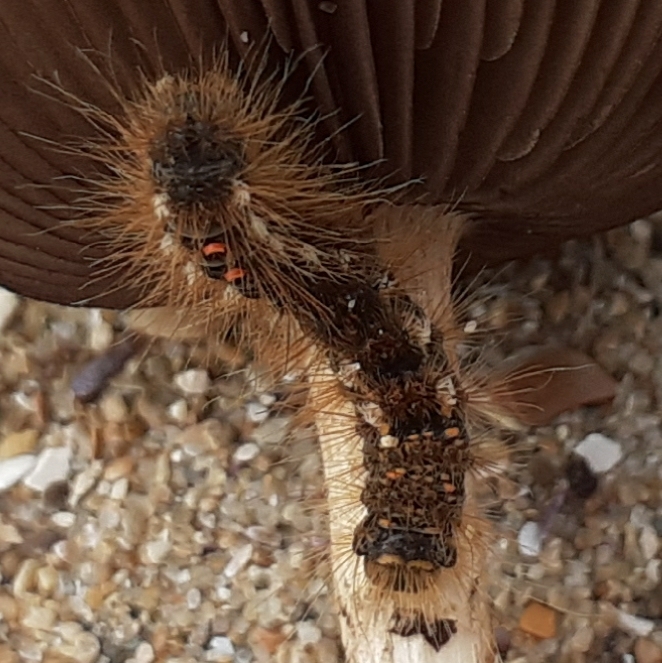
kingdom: Animalia
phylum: Arthropoda
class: Insecta
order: Lepidoptera
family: Erebidae
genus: Euproctis
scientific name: Euproctis chrysorrhoea
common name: Brown-tail
